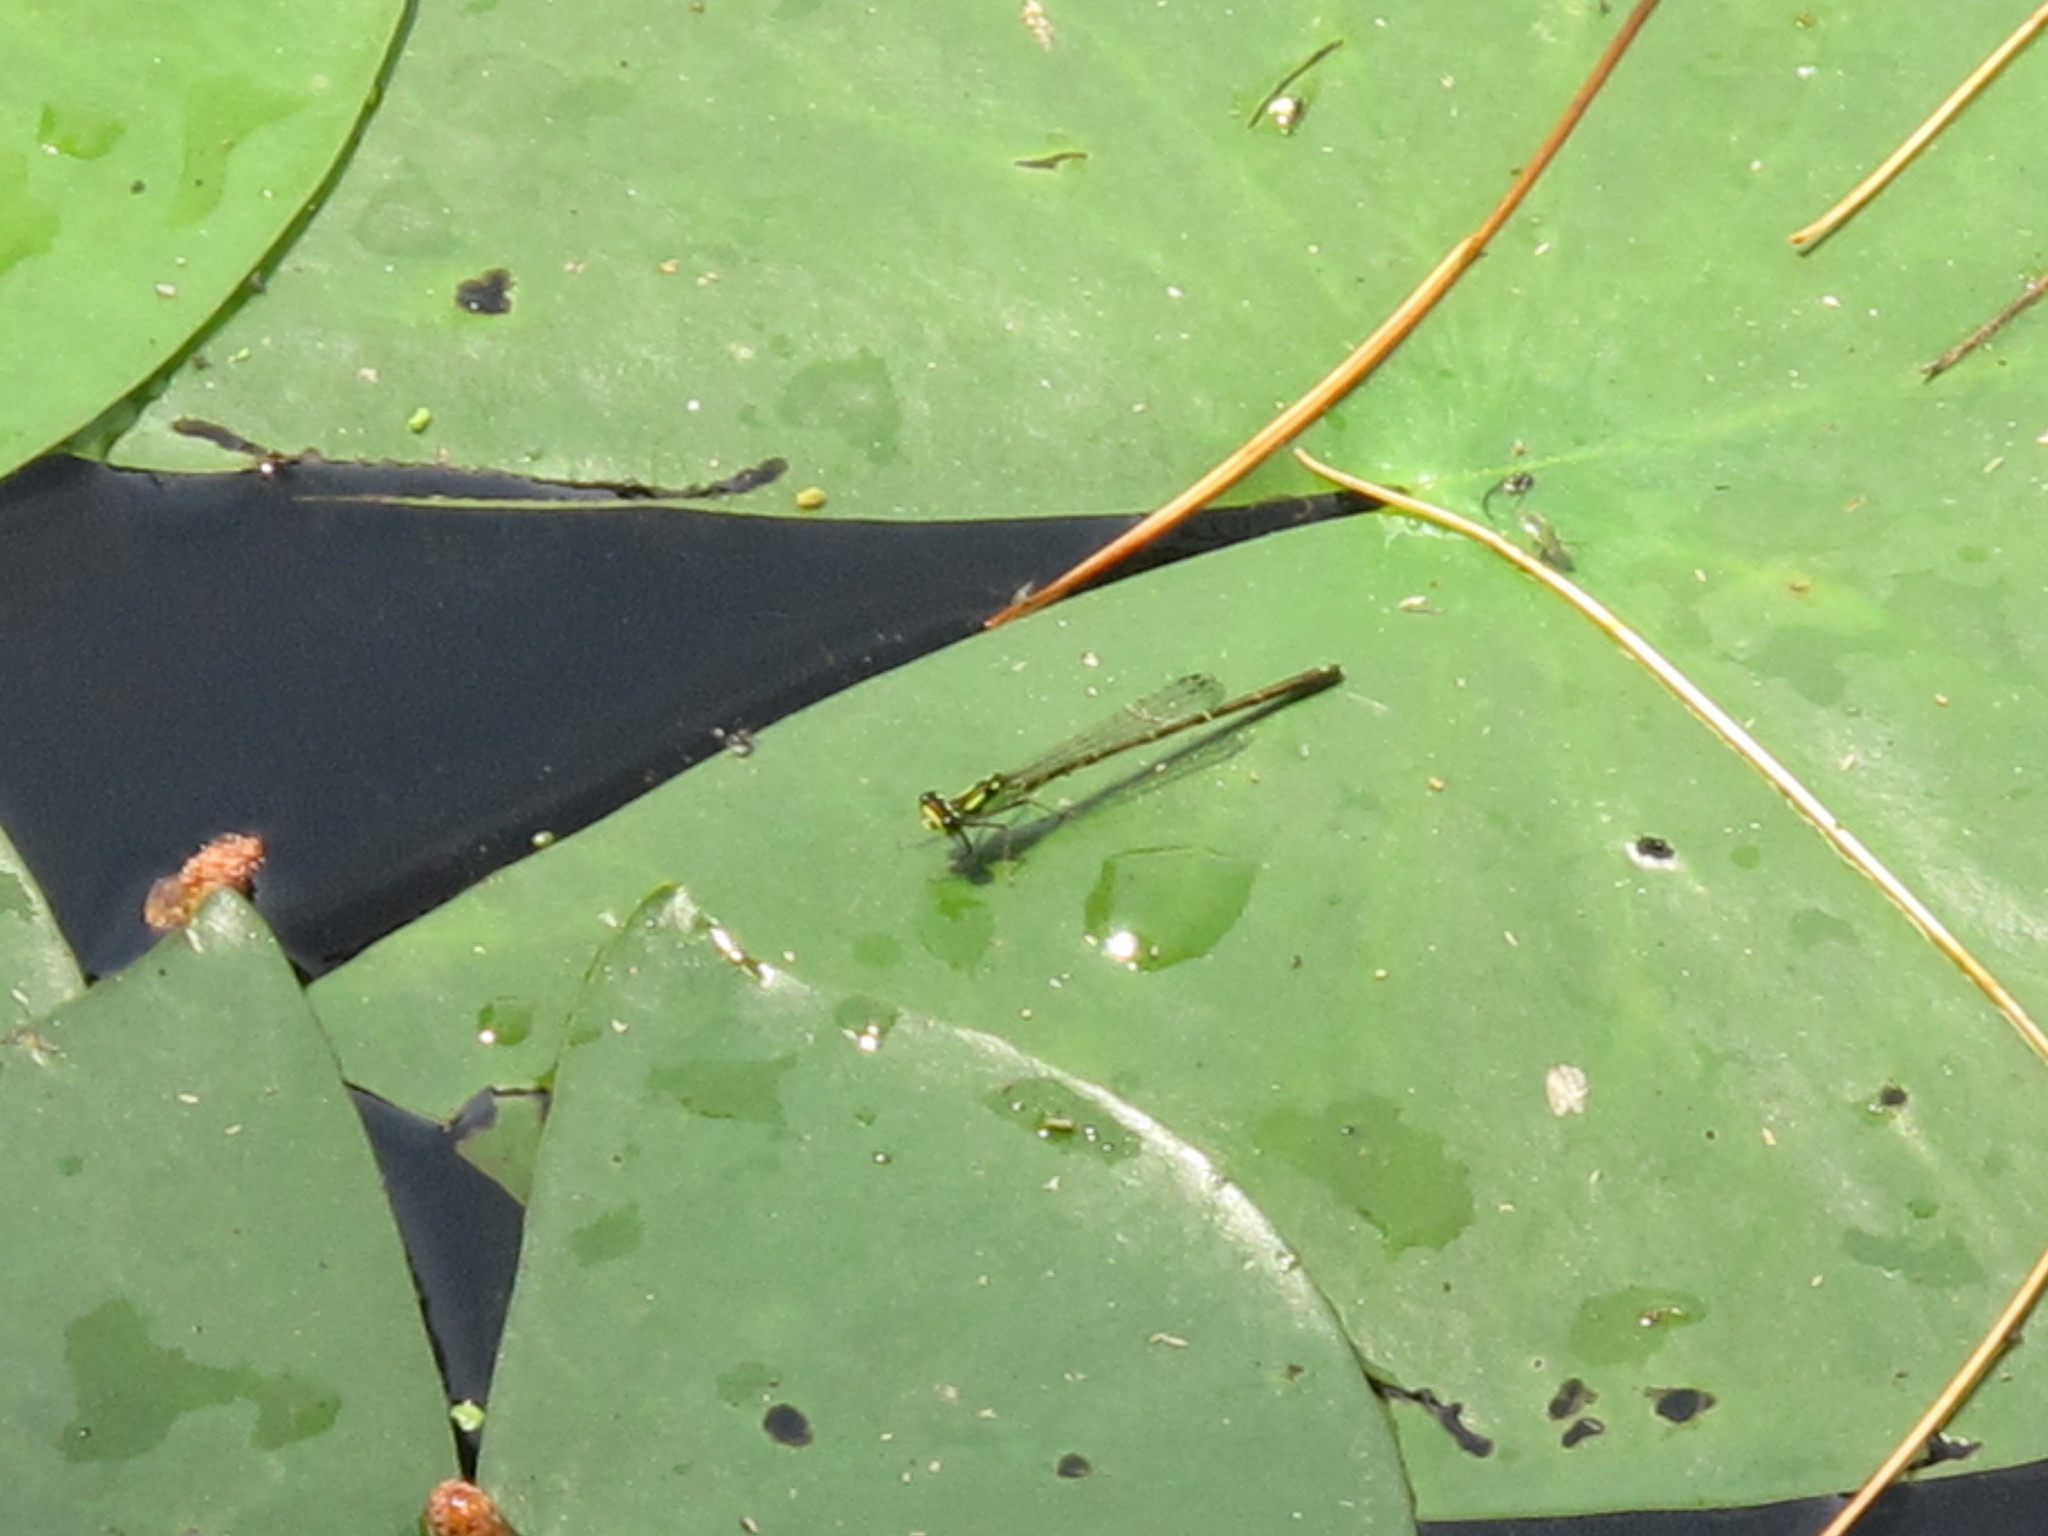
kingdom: Animalia
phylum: Arthropoda
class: Insecta
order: Odonata
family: Coenagrionidae
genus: Ischnura
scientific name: Ischnura posita
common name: Fragile forktail
